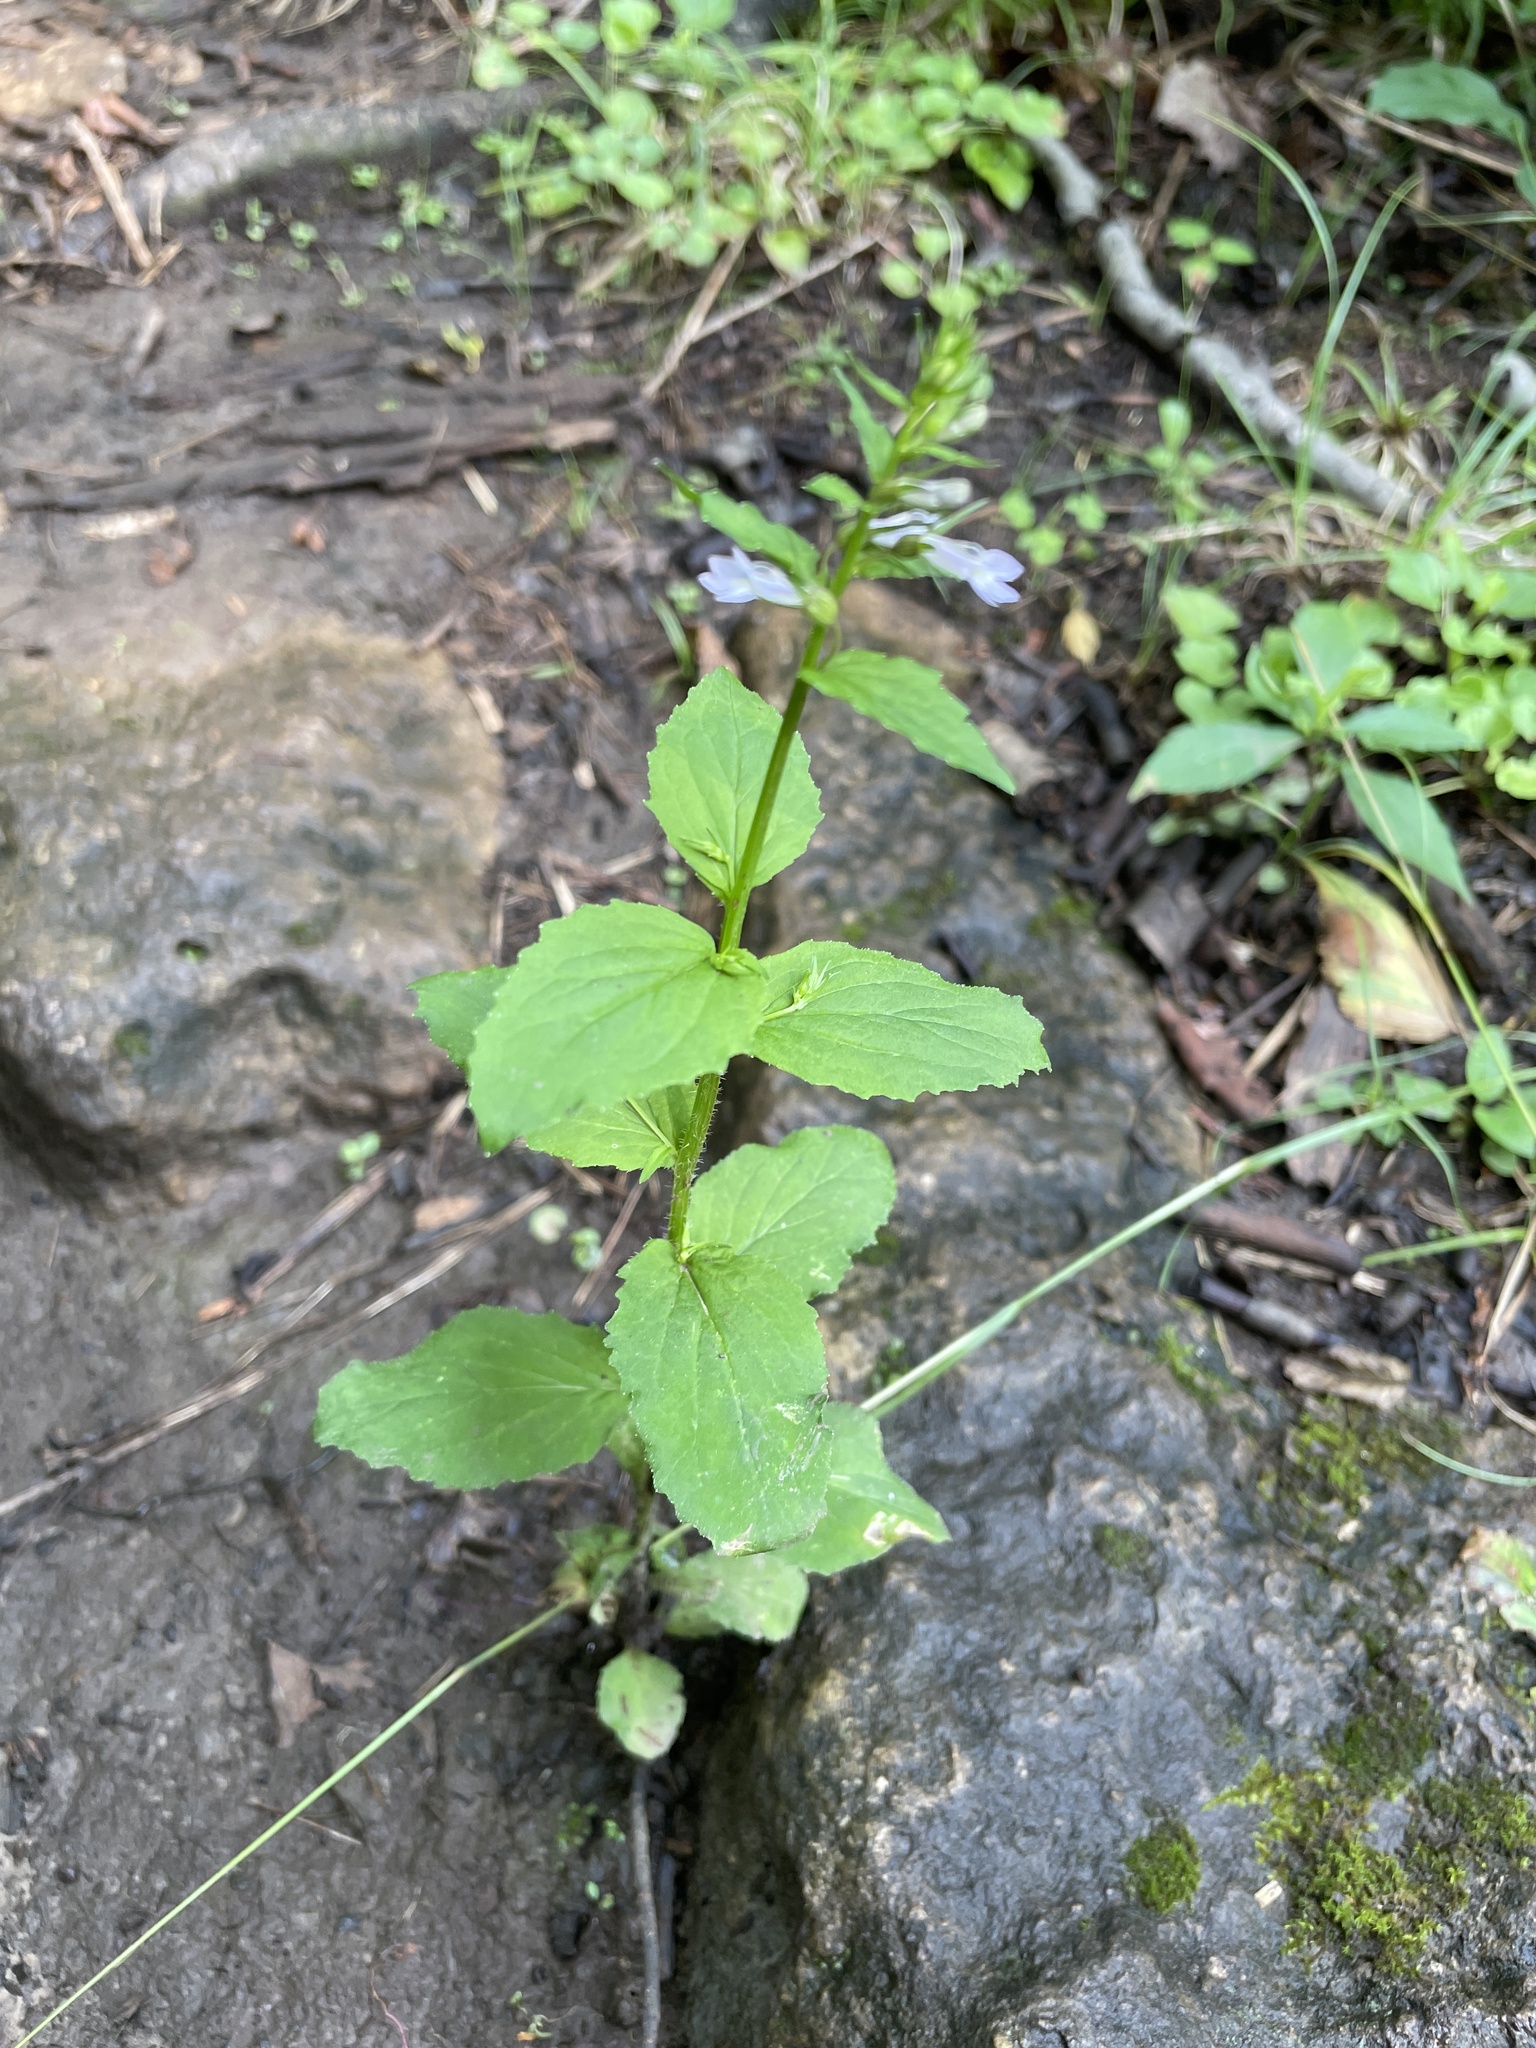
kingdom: Plantae
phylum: Tracheophyta
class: Magnoliopsida
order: Asterales
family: Campanulaceae
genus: Lobelia
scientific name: Lobelia inflata
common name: Indian tobacco
